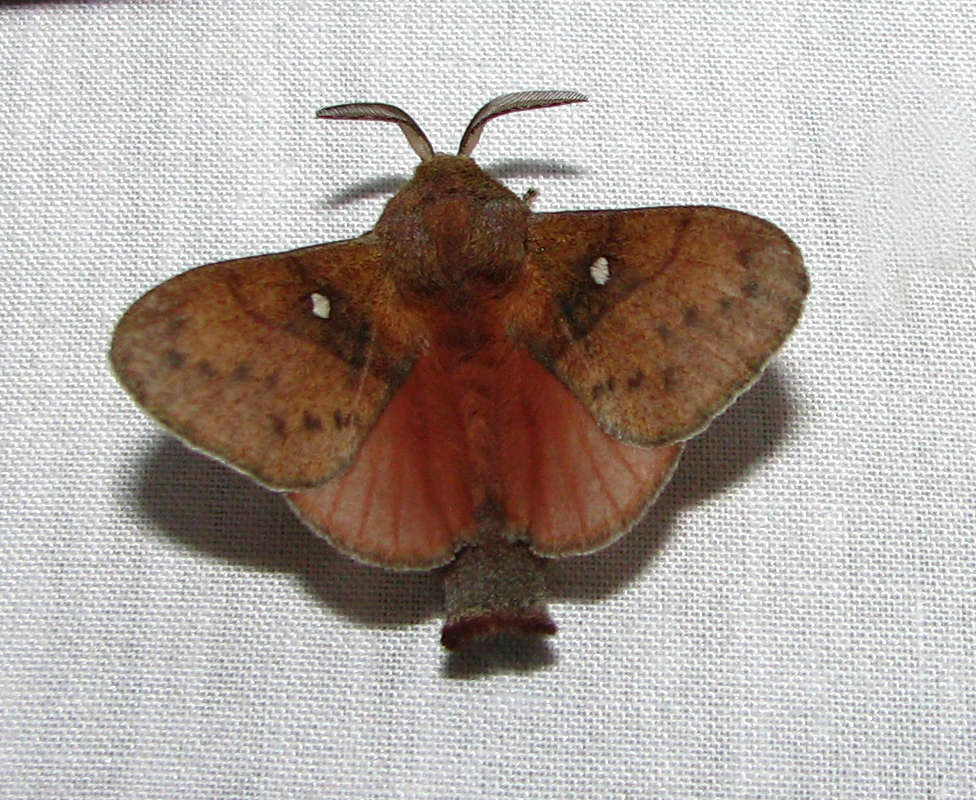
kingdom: Animalia
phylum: Arthropoda
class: Insecta
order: Lepidoptera
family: Lasiocampidae
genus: Opsirhina
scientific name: Opsirhina lechriodes
